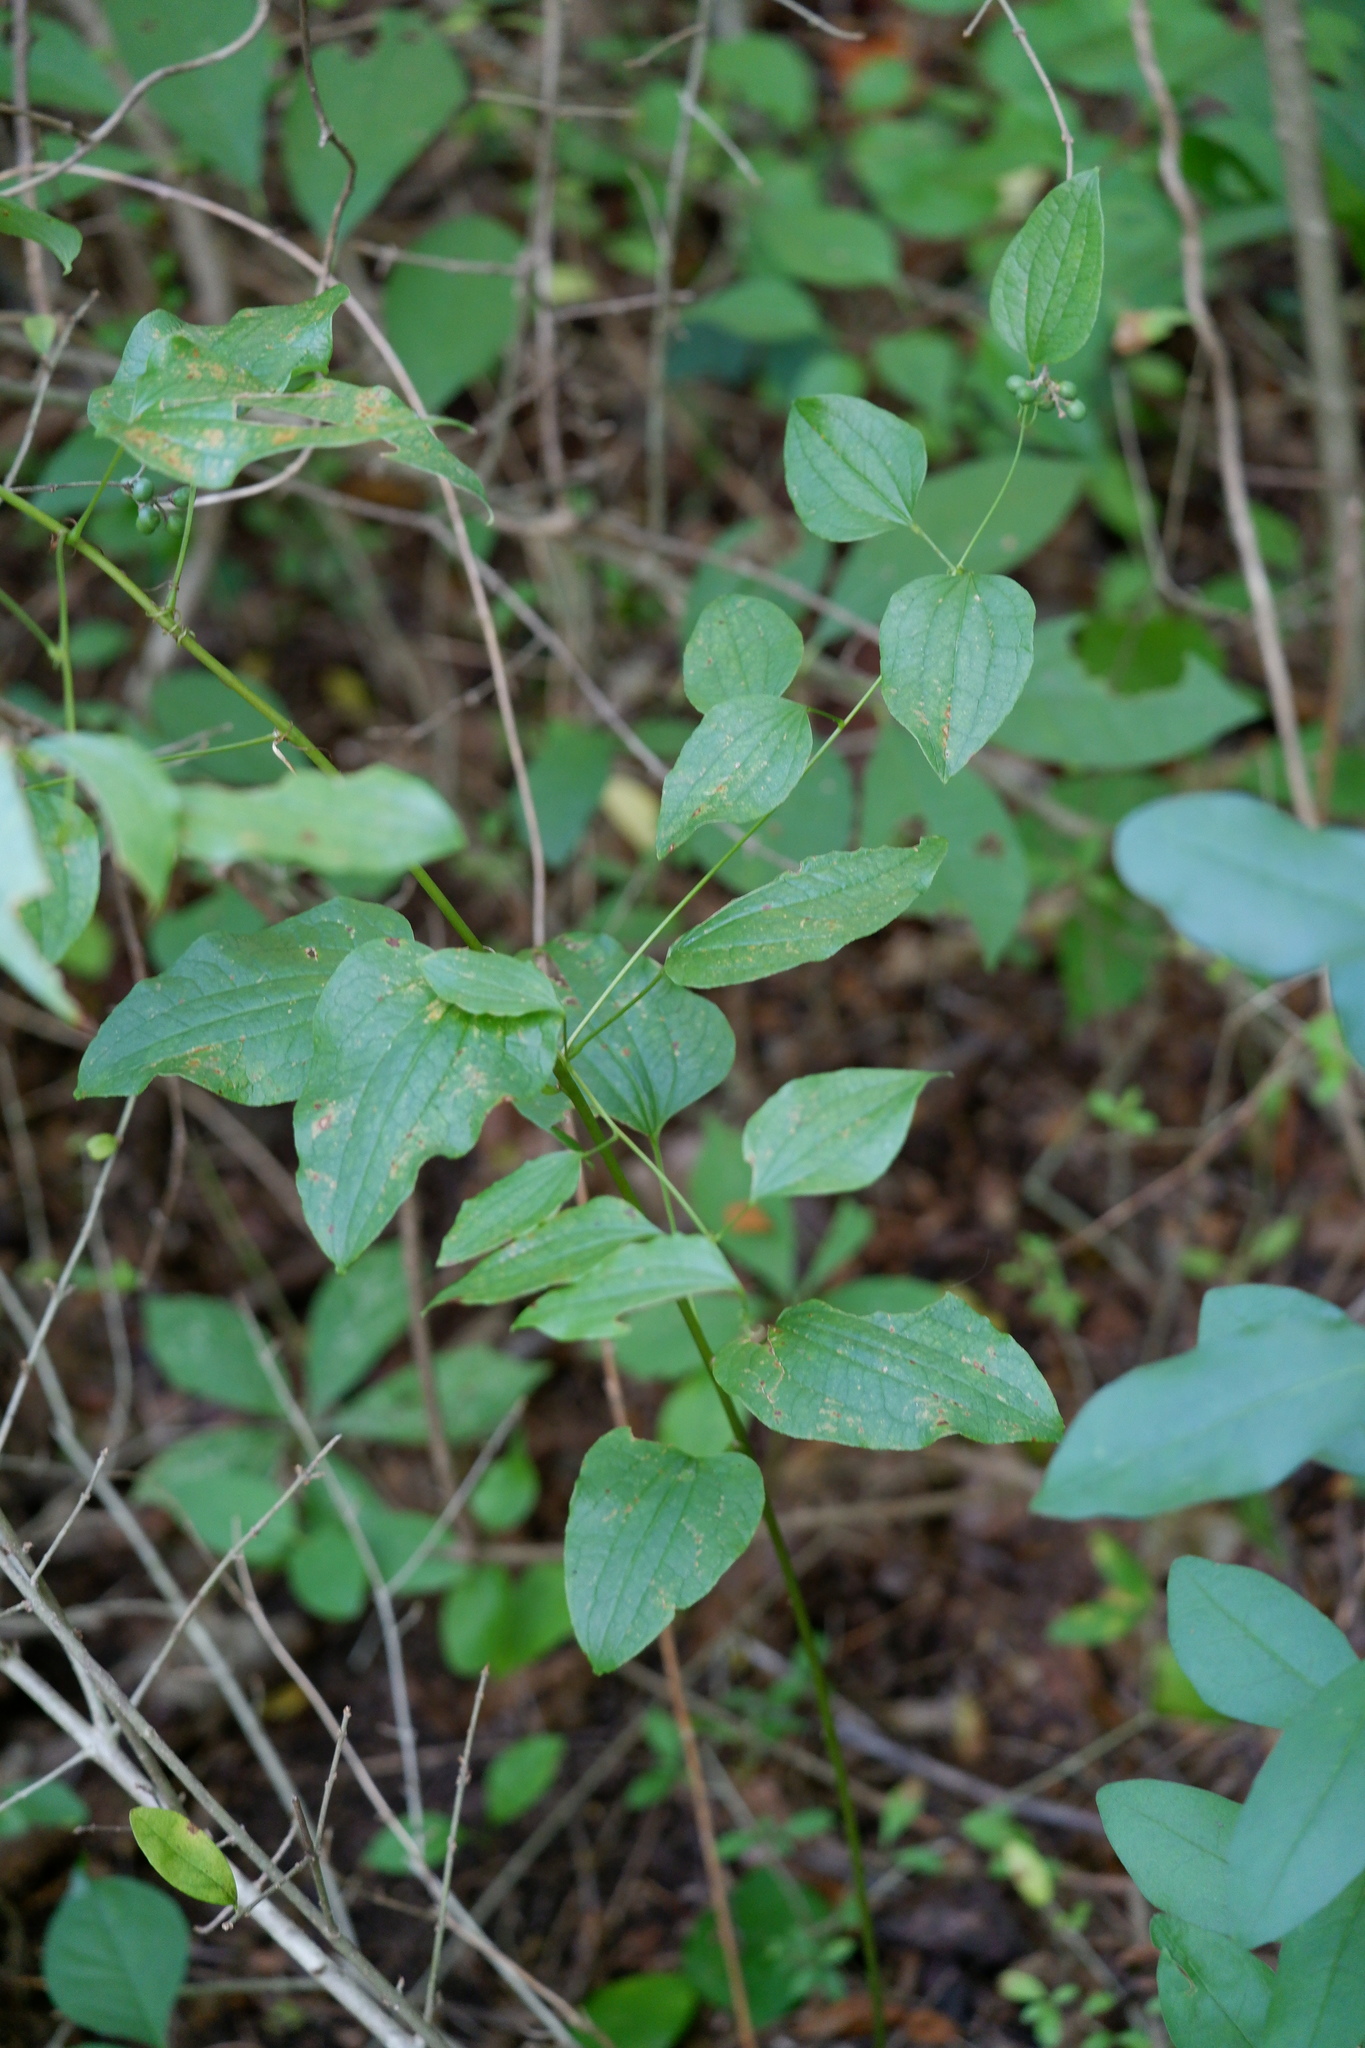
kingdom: Plantae
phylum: Tracheophyta
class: Liliopsida
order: Liliales
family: Smilacaceae
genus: Smilax
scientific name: Smilax herbacea
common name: Jacob's-ladder
